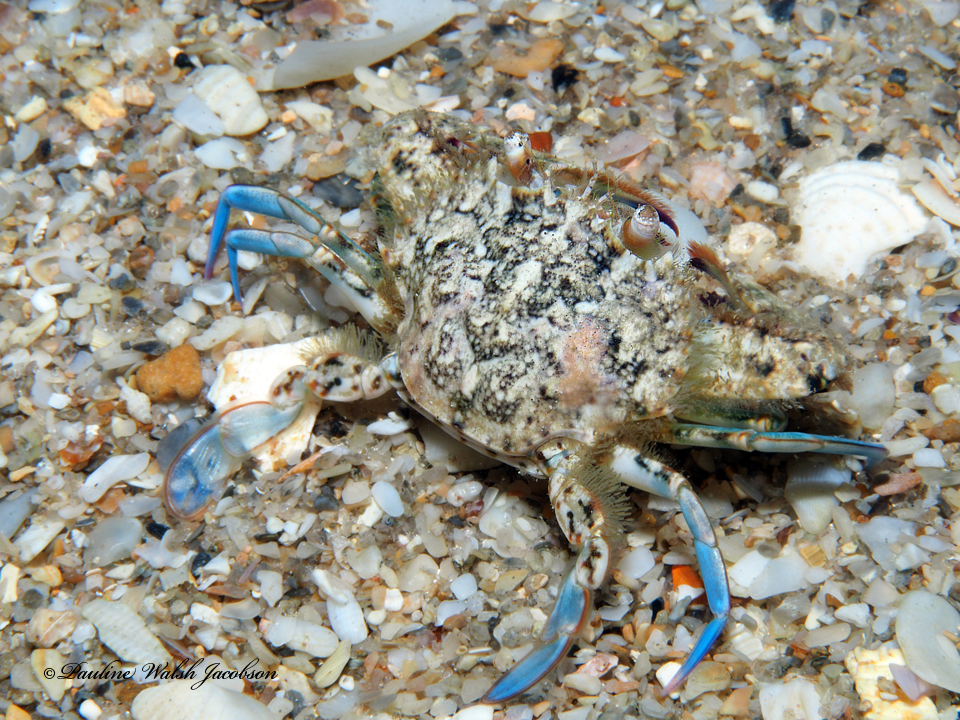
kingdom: Animalia
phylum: Arthropoda
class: Malacostraca
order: Decapoda
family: Portunidae
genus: Achelous
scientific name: Achelous depressifrons
